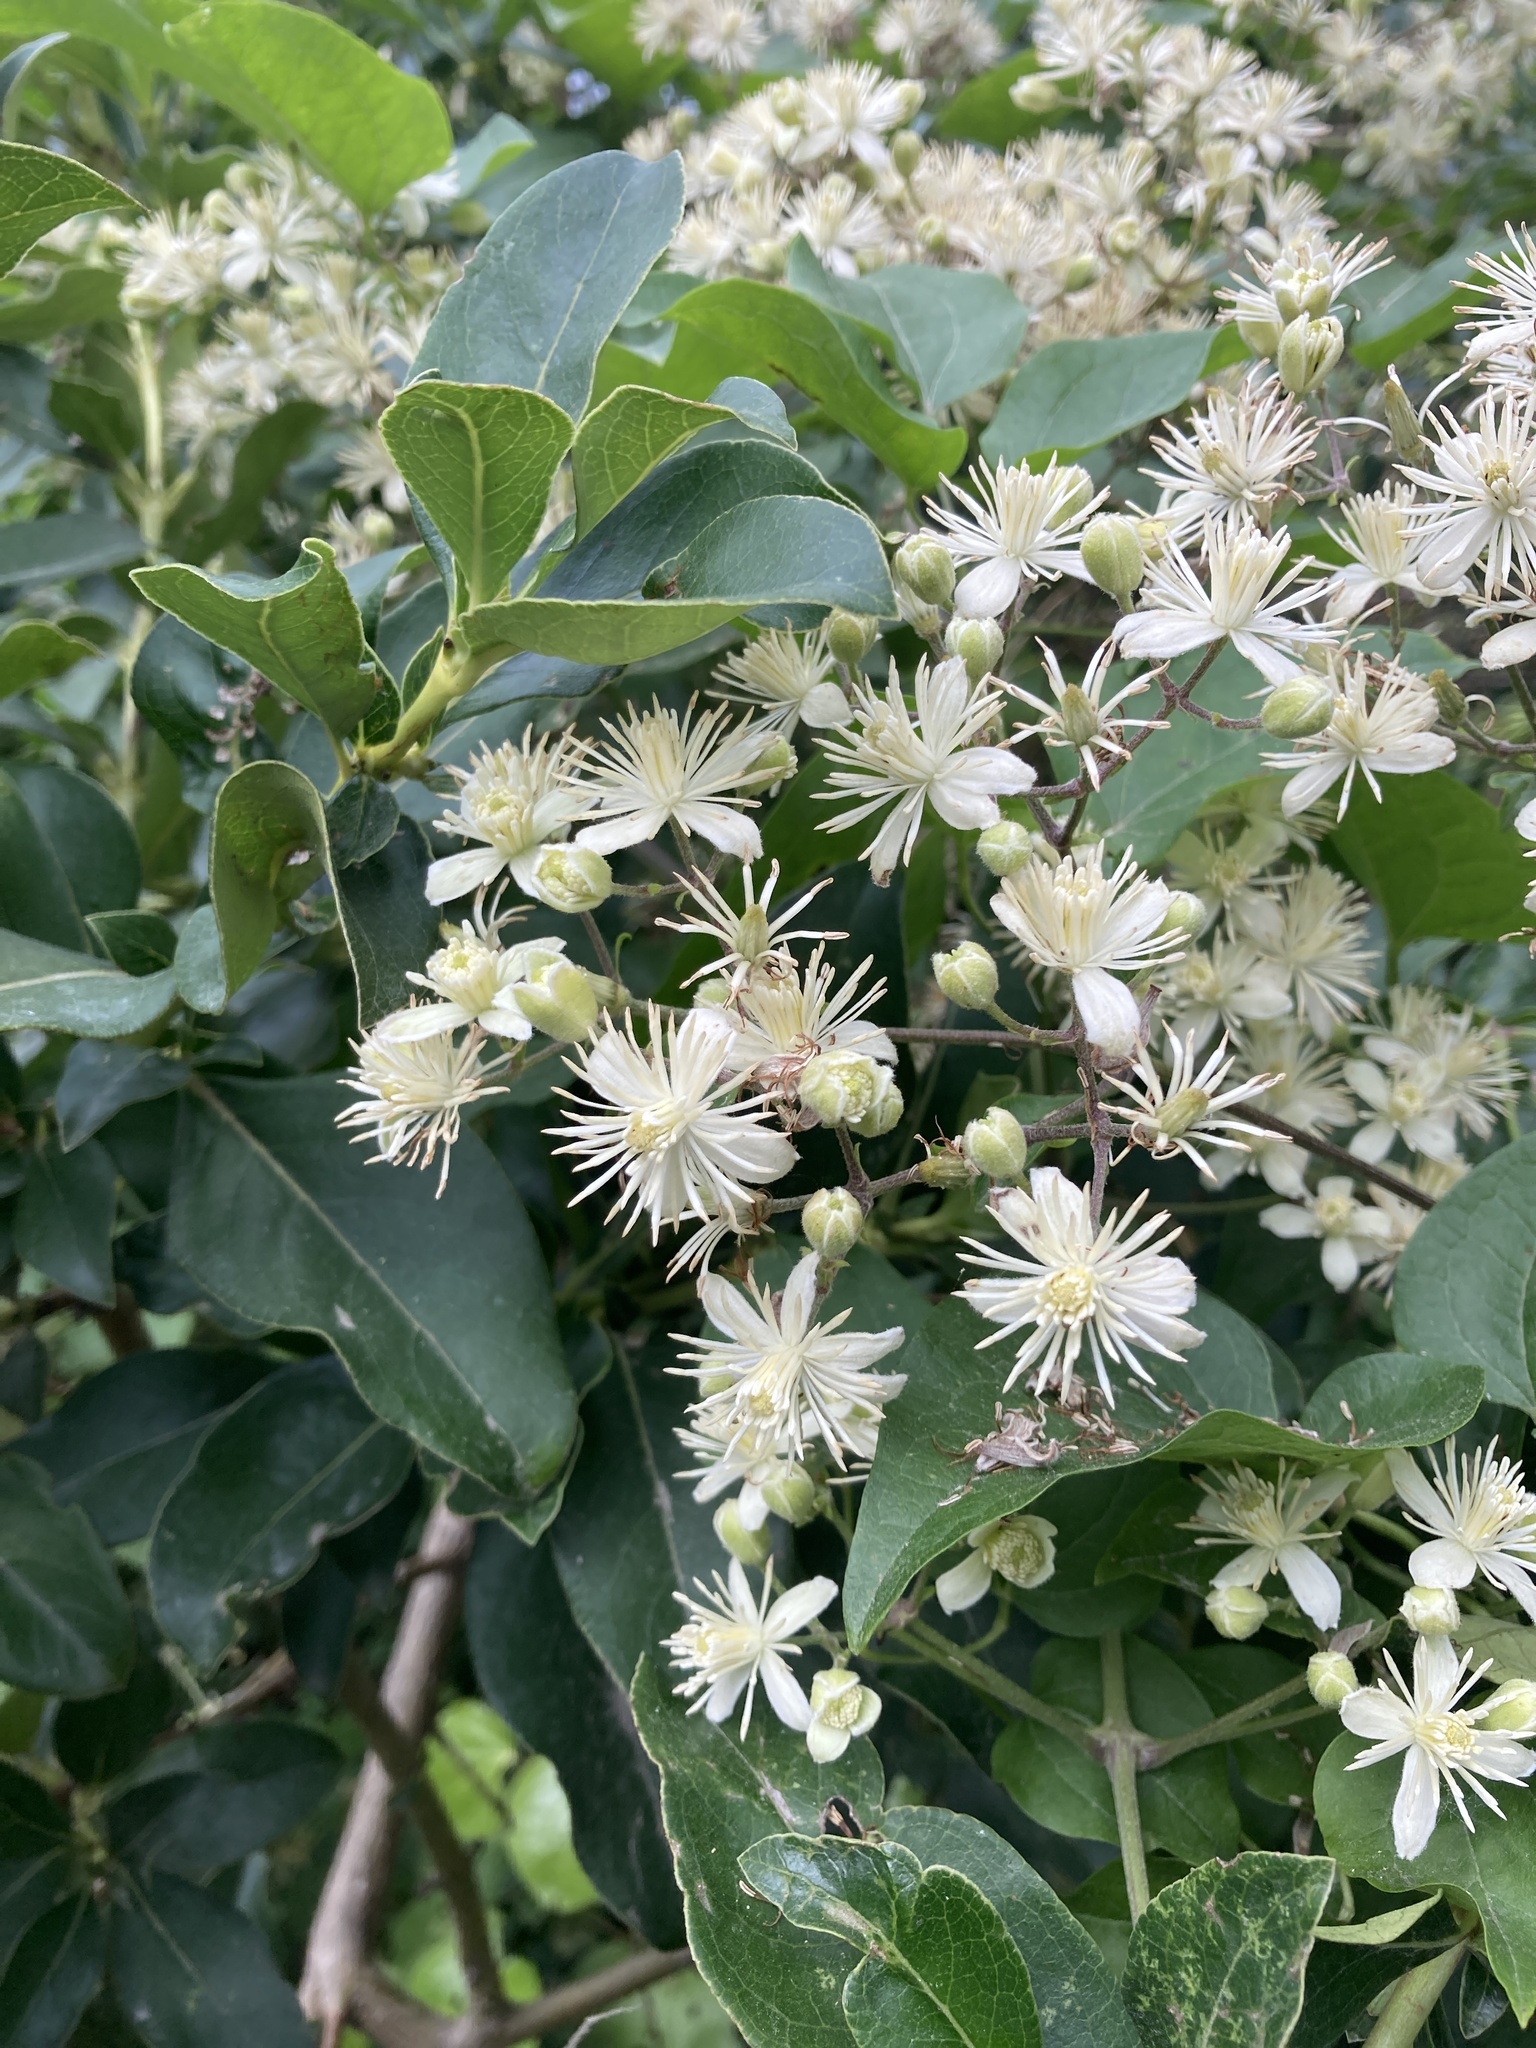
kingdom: Plantae
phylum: Tracheophyta
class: Magnoliopsida
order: Ranunculales
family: Ranunculaceae
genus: Clematis
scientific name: Clematis vitalba
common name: Evergreen clematis
